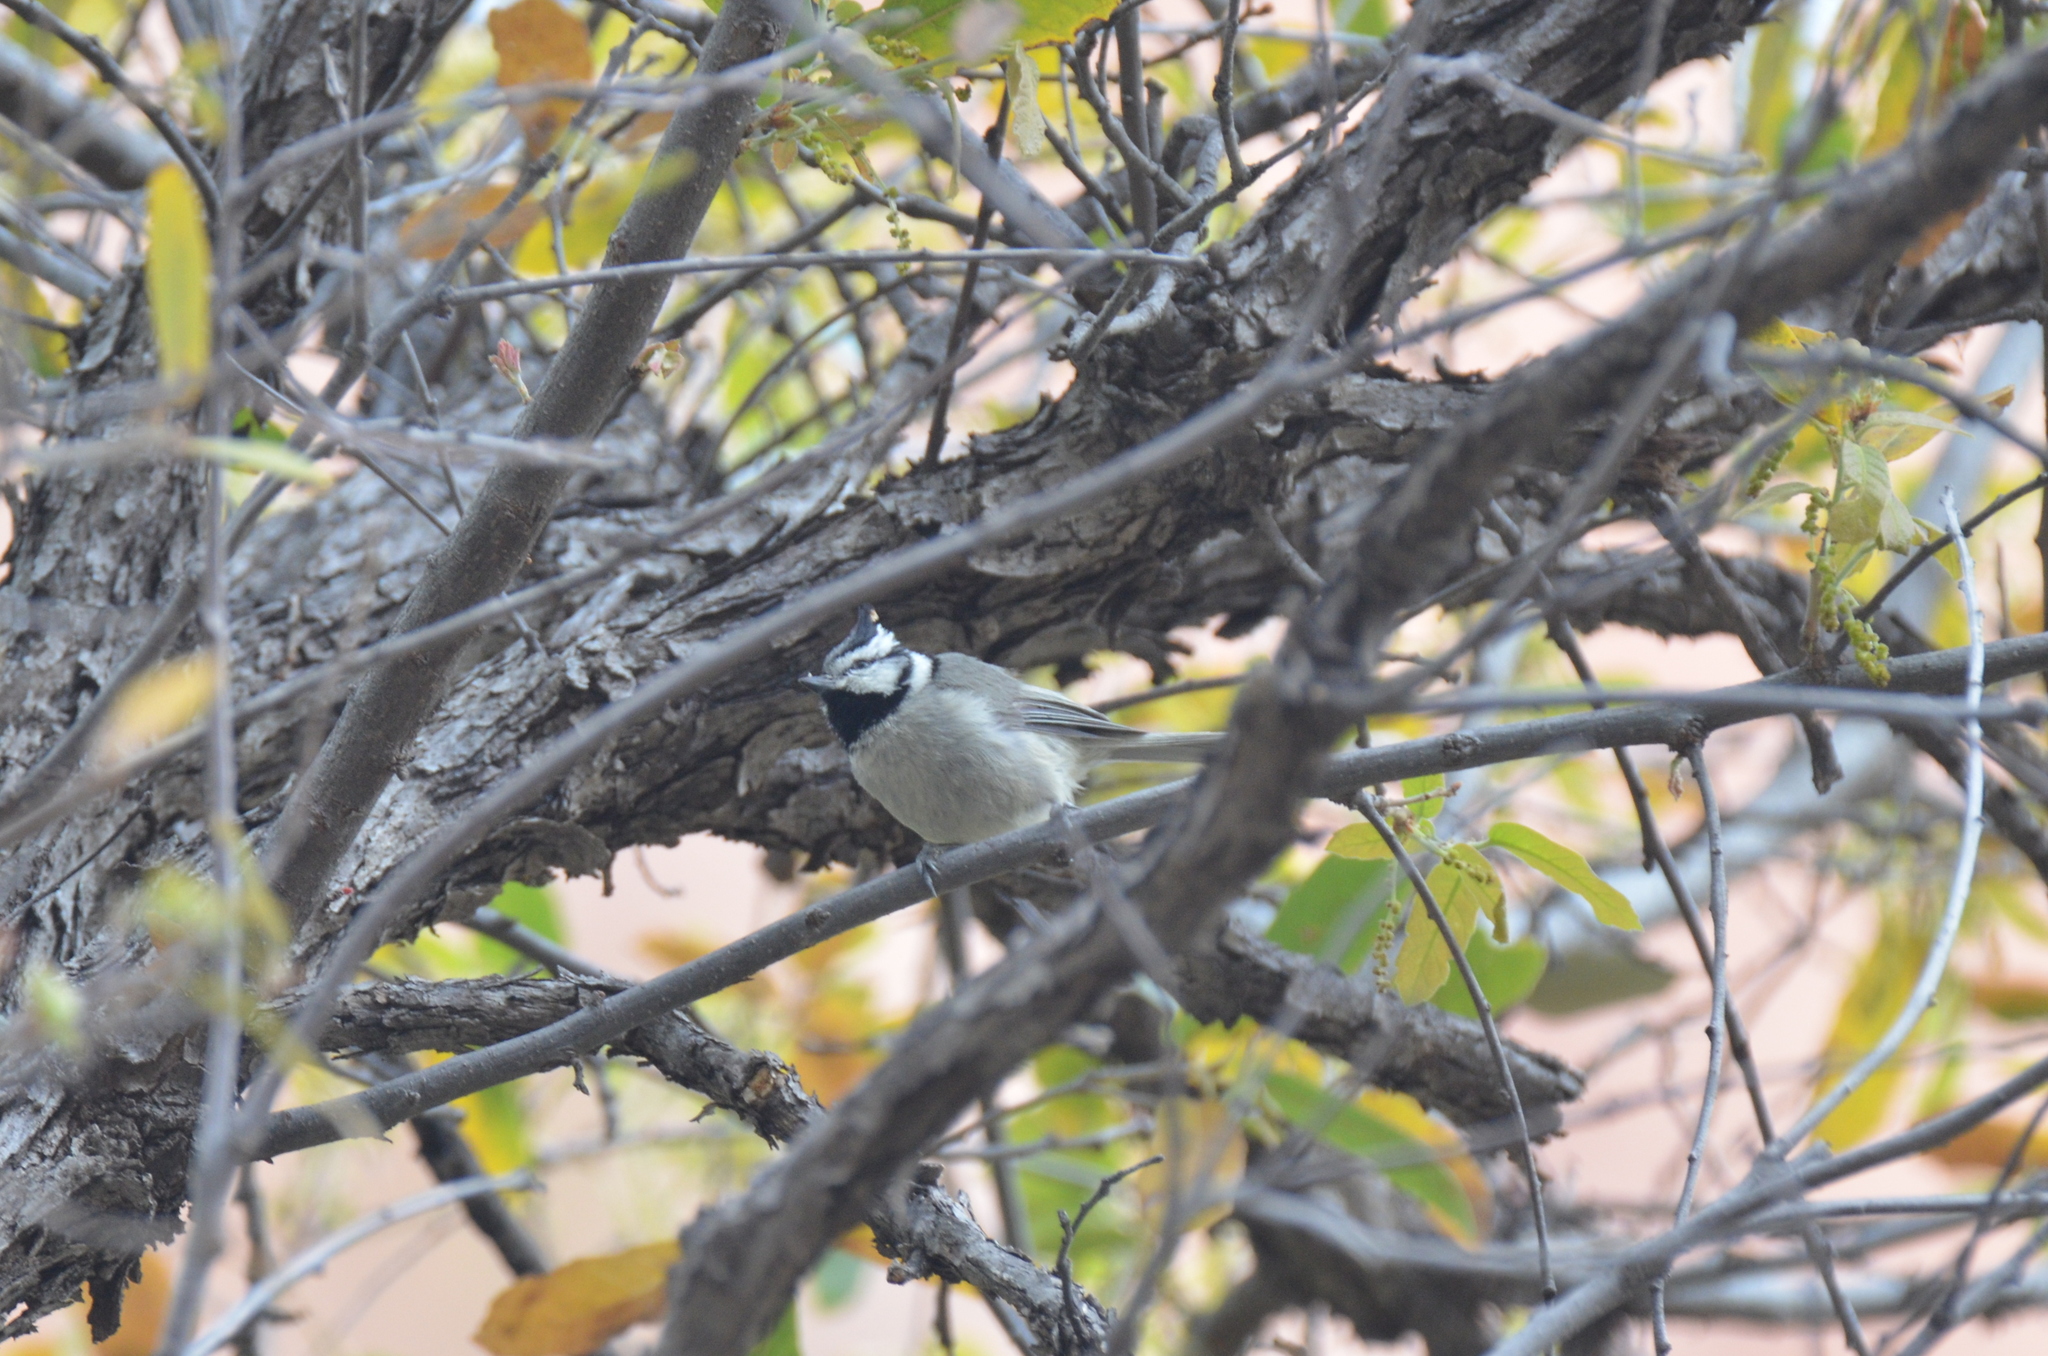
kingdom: Animalia
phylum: Chordata
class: Aves
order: Passeriformes
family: Paridae
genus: Baeolophus
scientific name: Baeolophus wollweberi
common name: Bridled titmouse
